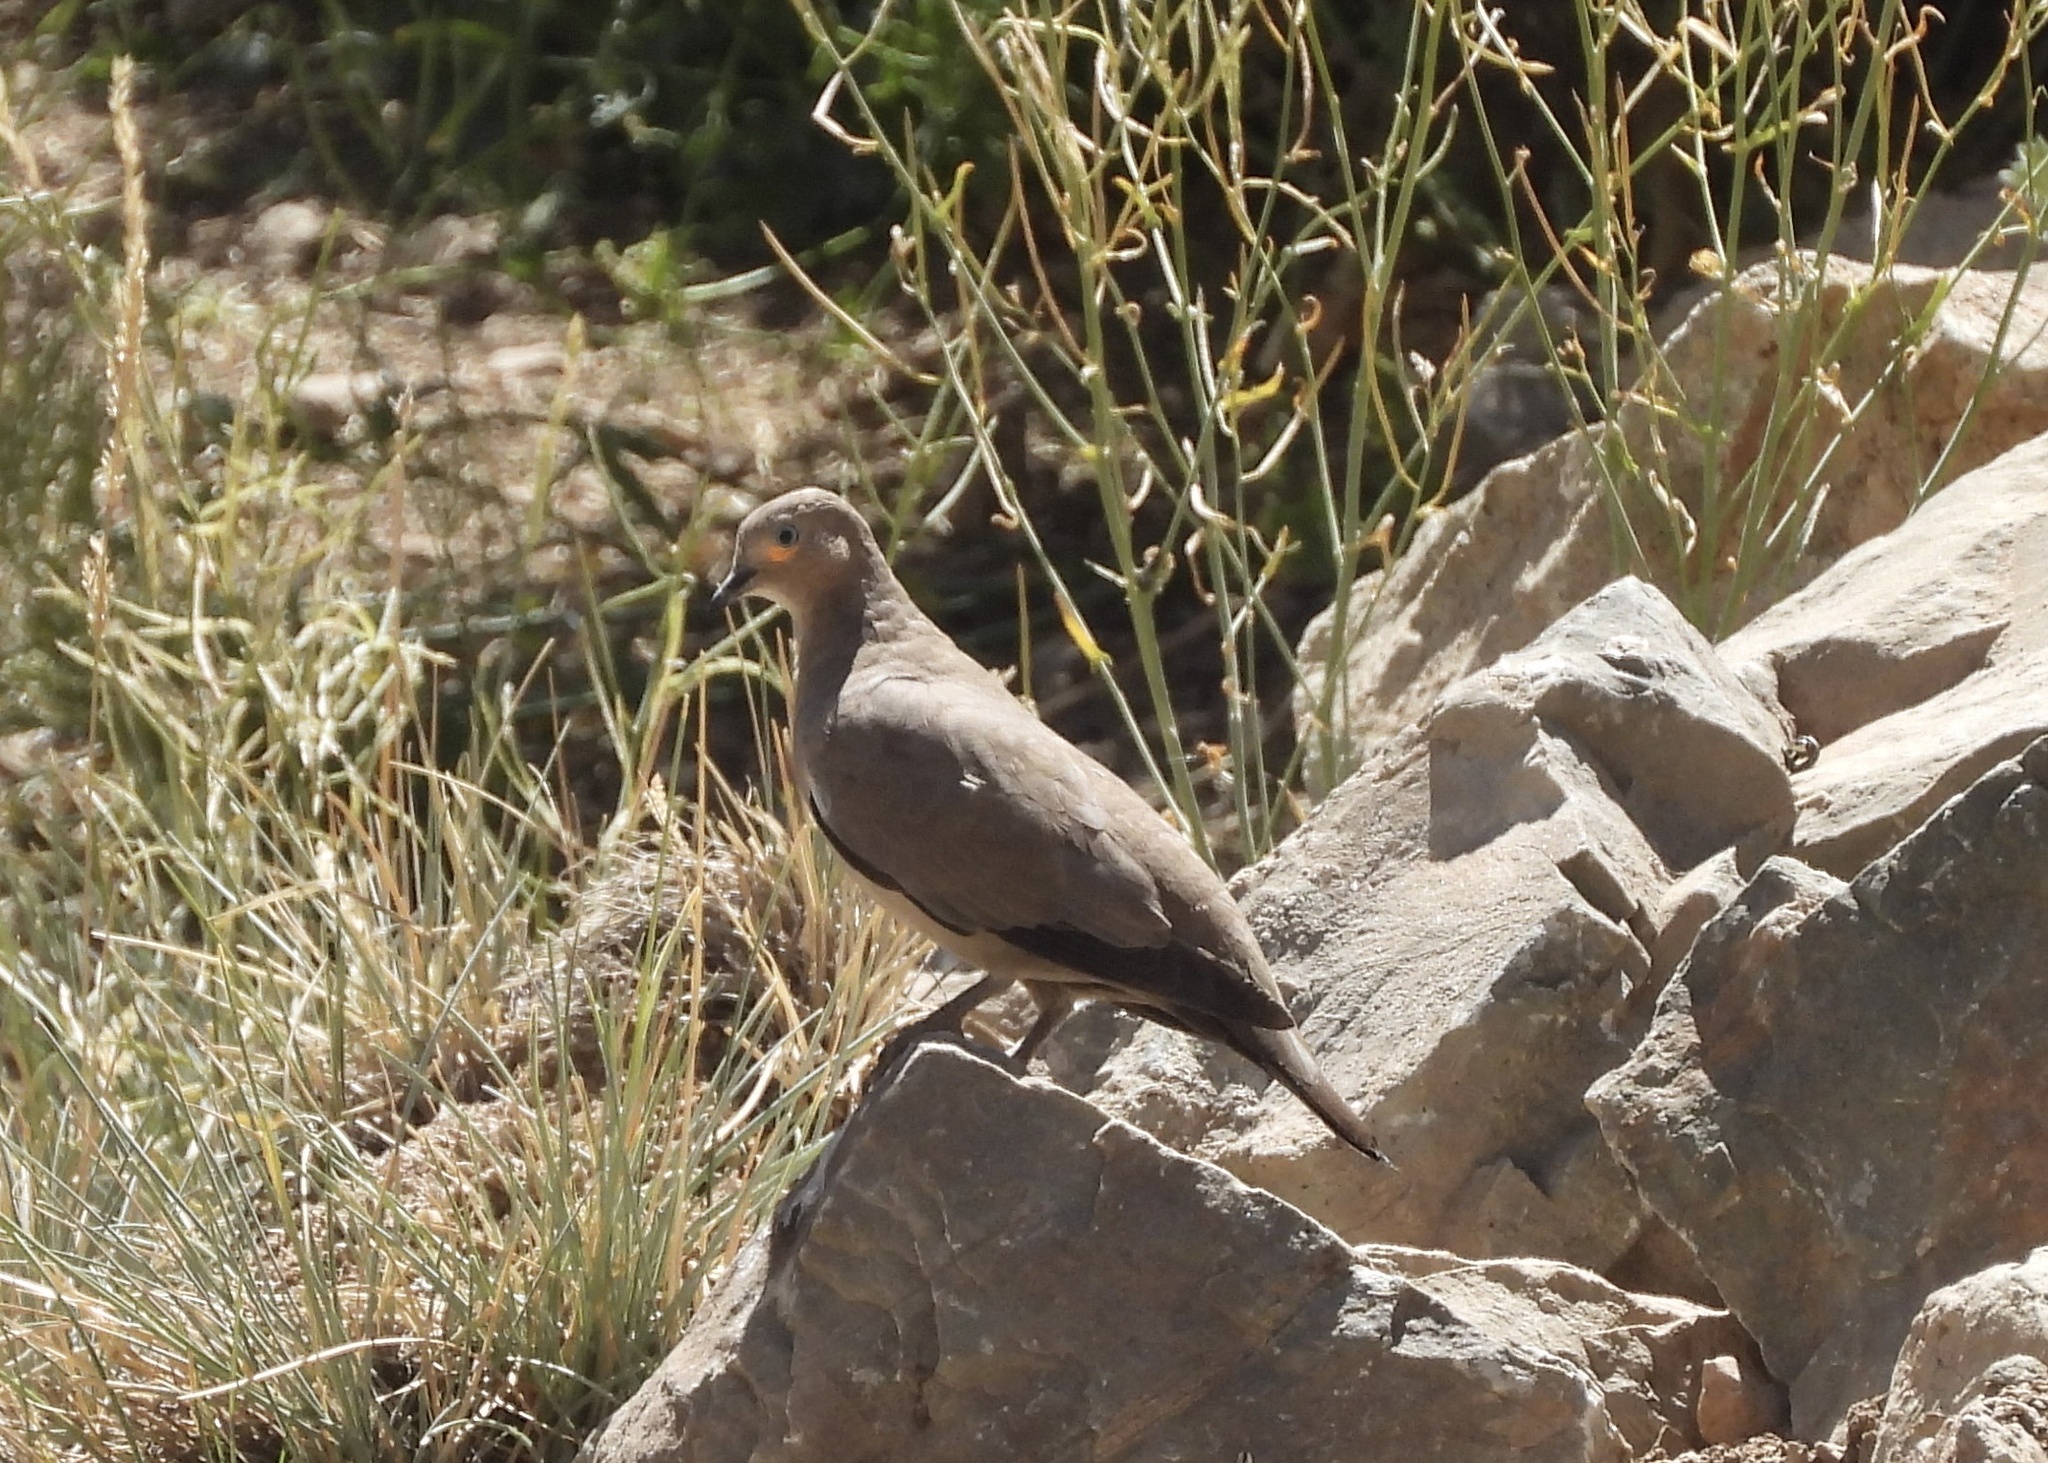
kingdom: Animalia
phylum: Chordata
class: Aves
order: Columbiformes
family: Columbidae
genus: Metriopelia
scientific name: Metriopelia melanoptera
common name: Black-winged ground dove
